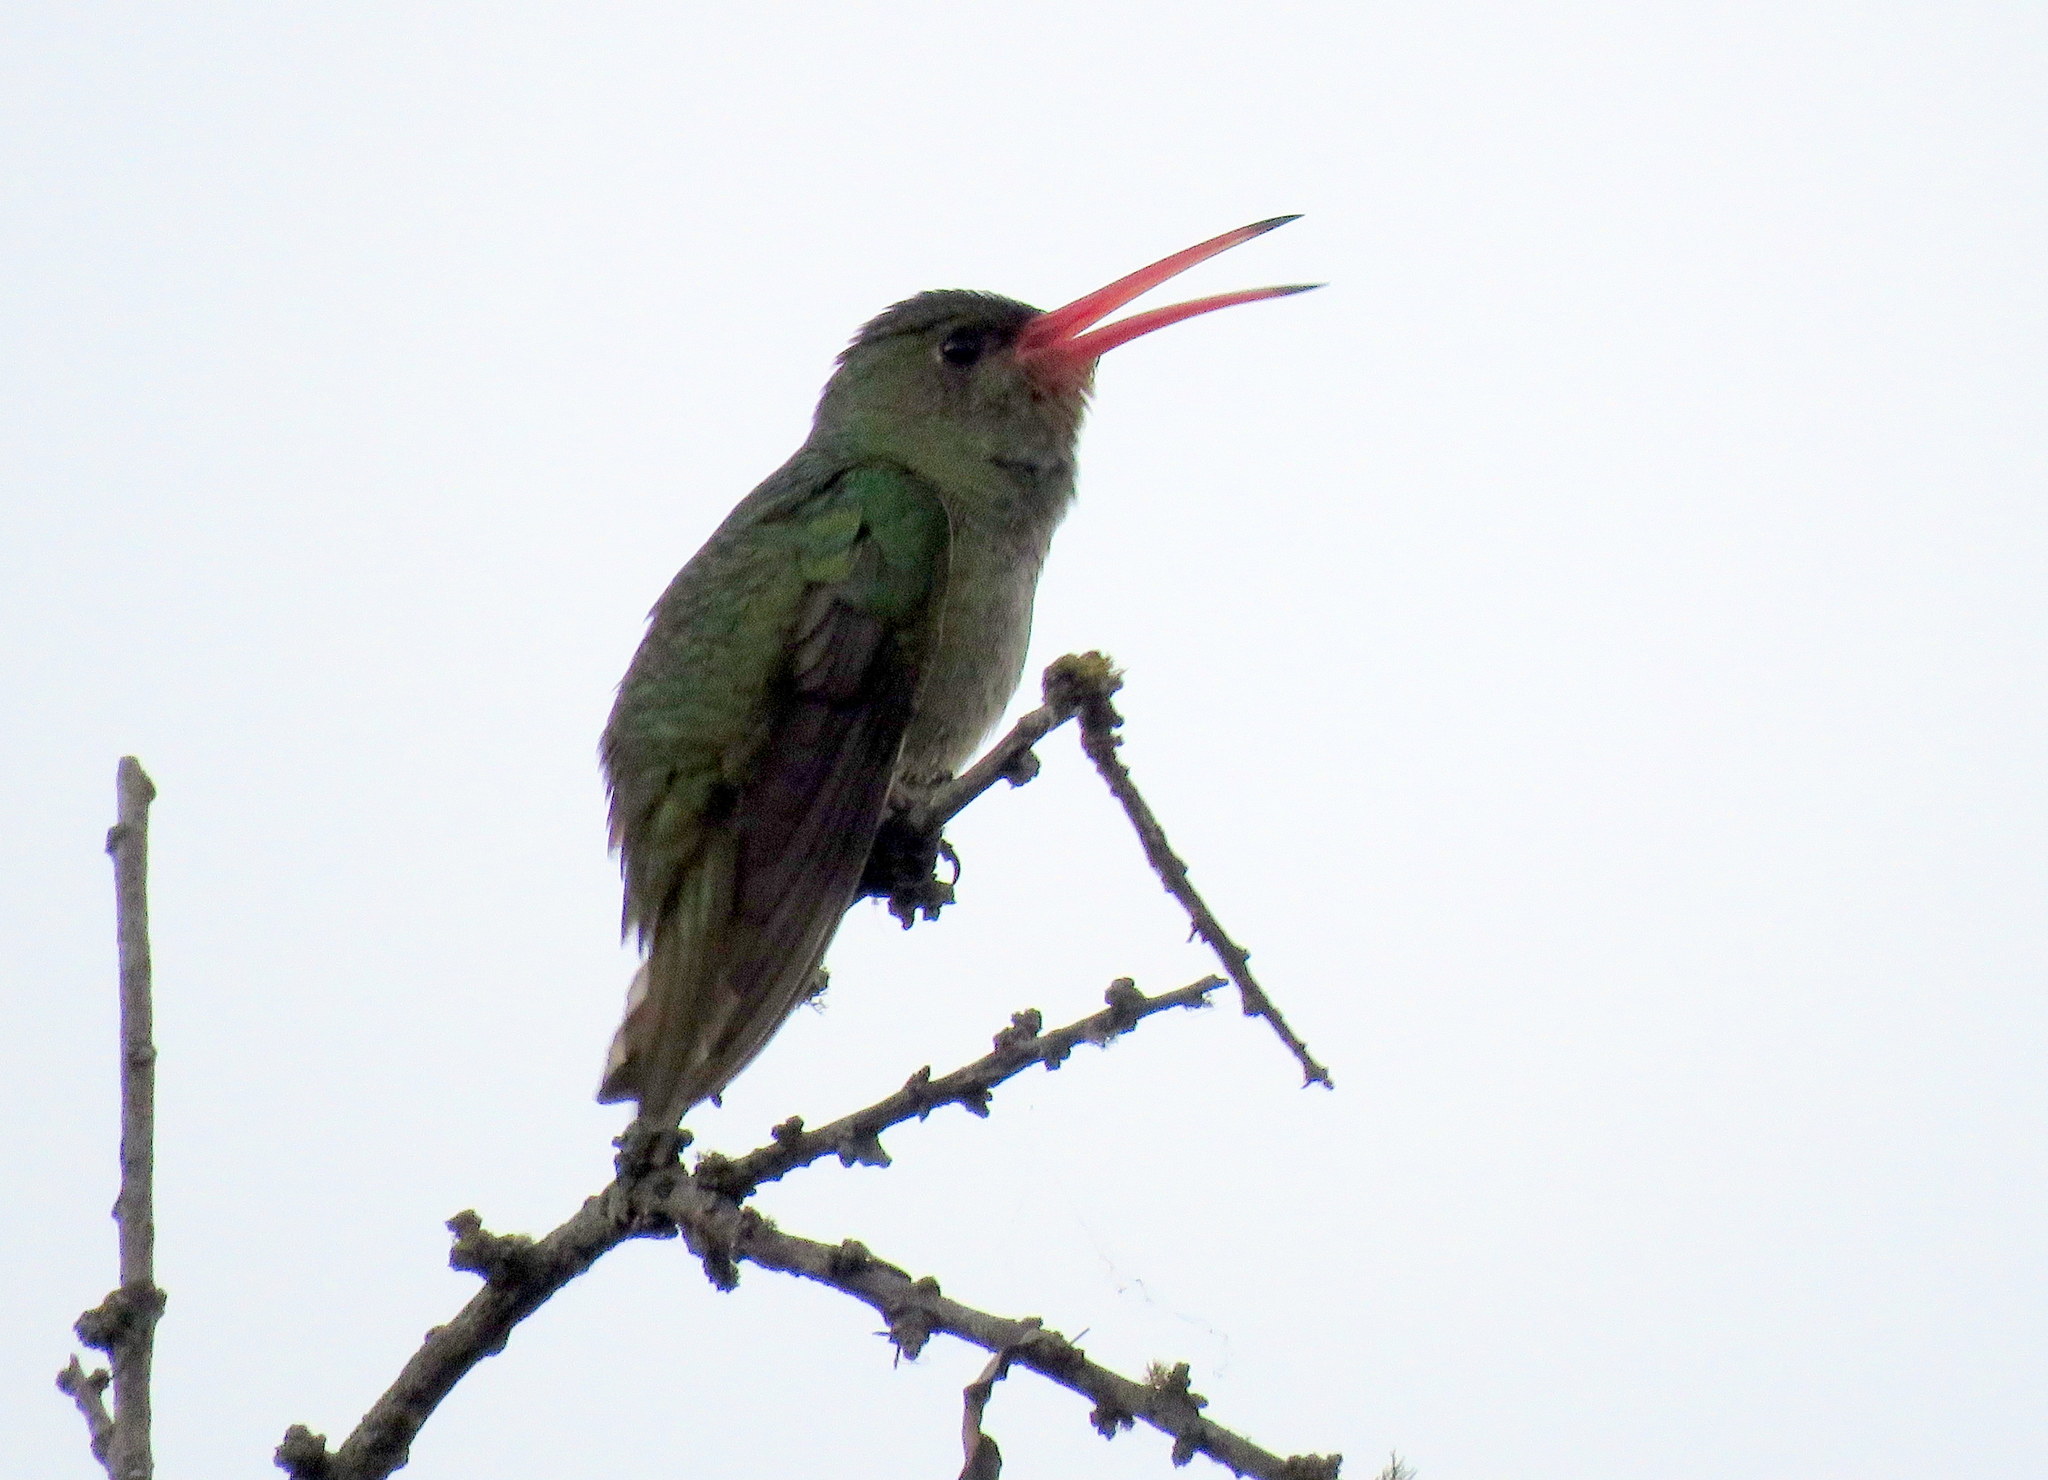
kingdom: Animalia
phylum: Chordata
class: Aves
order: Apodiformes
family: Trochilidae
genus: Hylocharis
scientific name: Hylocharis chrysura
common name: Gilded sapphire
